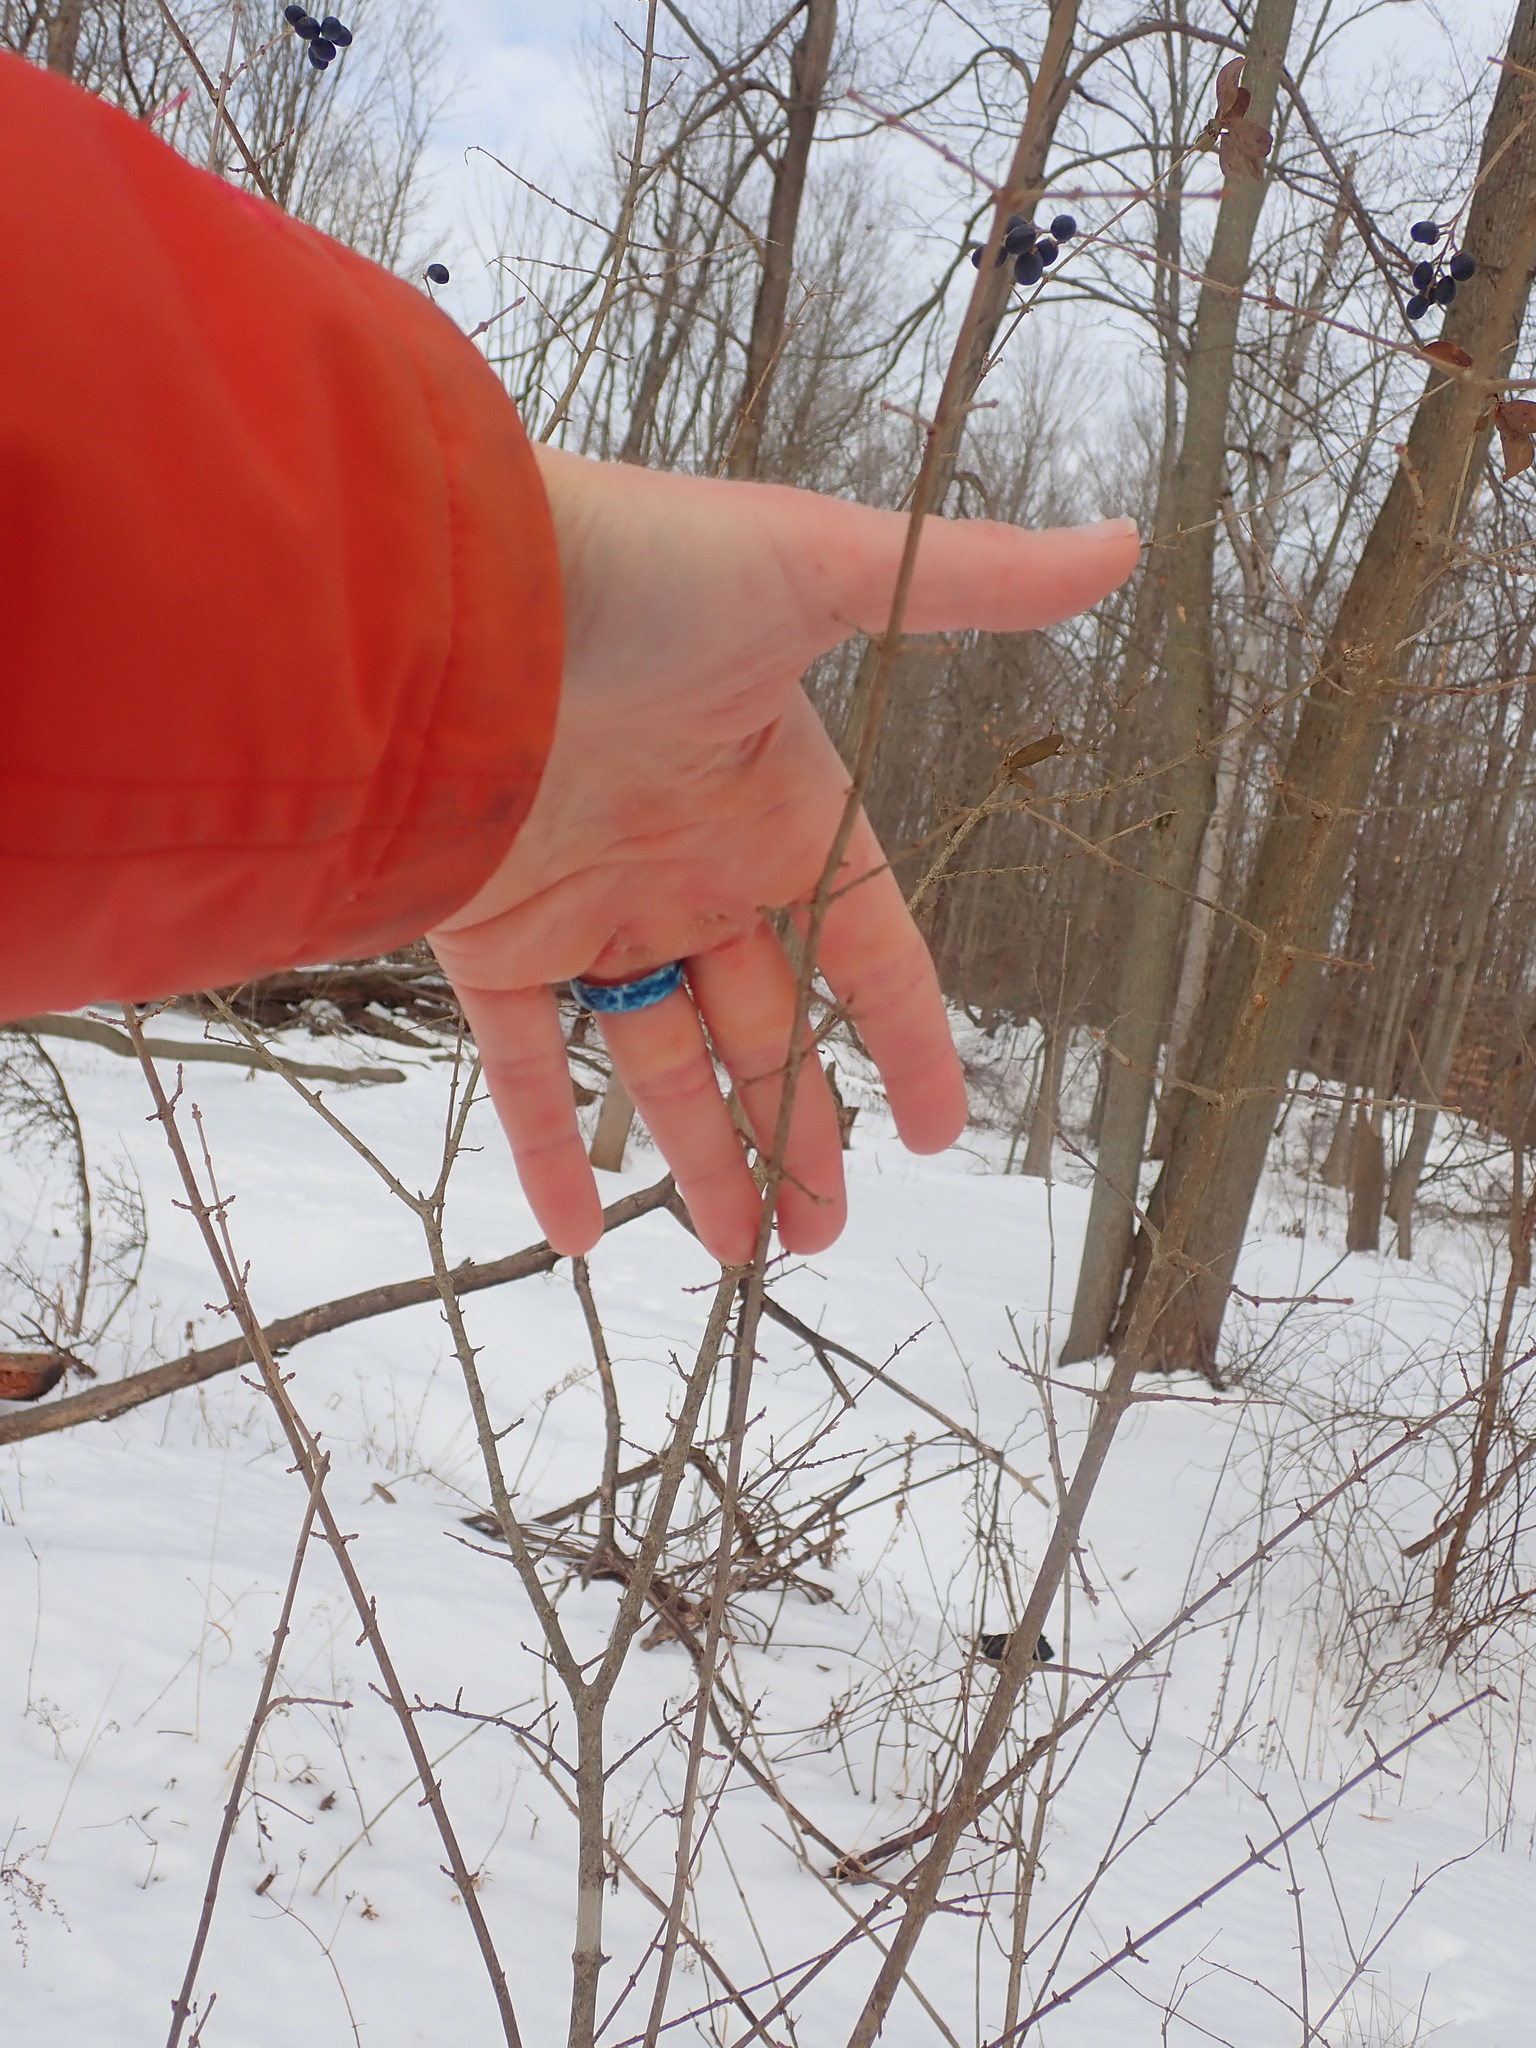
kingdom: Plantae
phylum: Tracheophyta
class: Magnoliopsida
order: Lamiales
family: Oleaceae
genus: Ligustrum
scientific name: Ligustrum vulgare
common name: Wild privet
